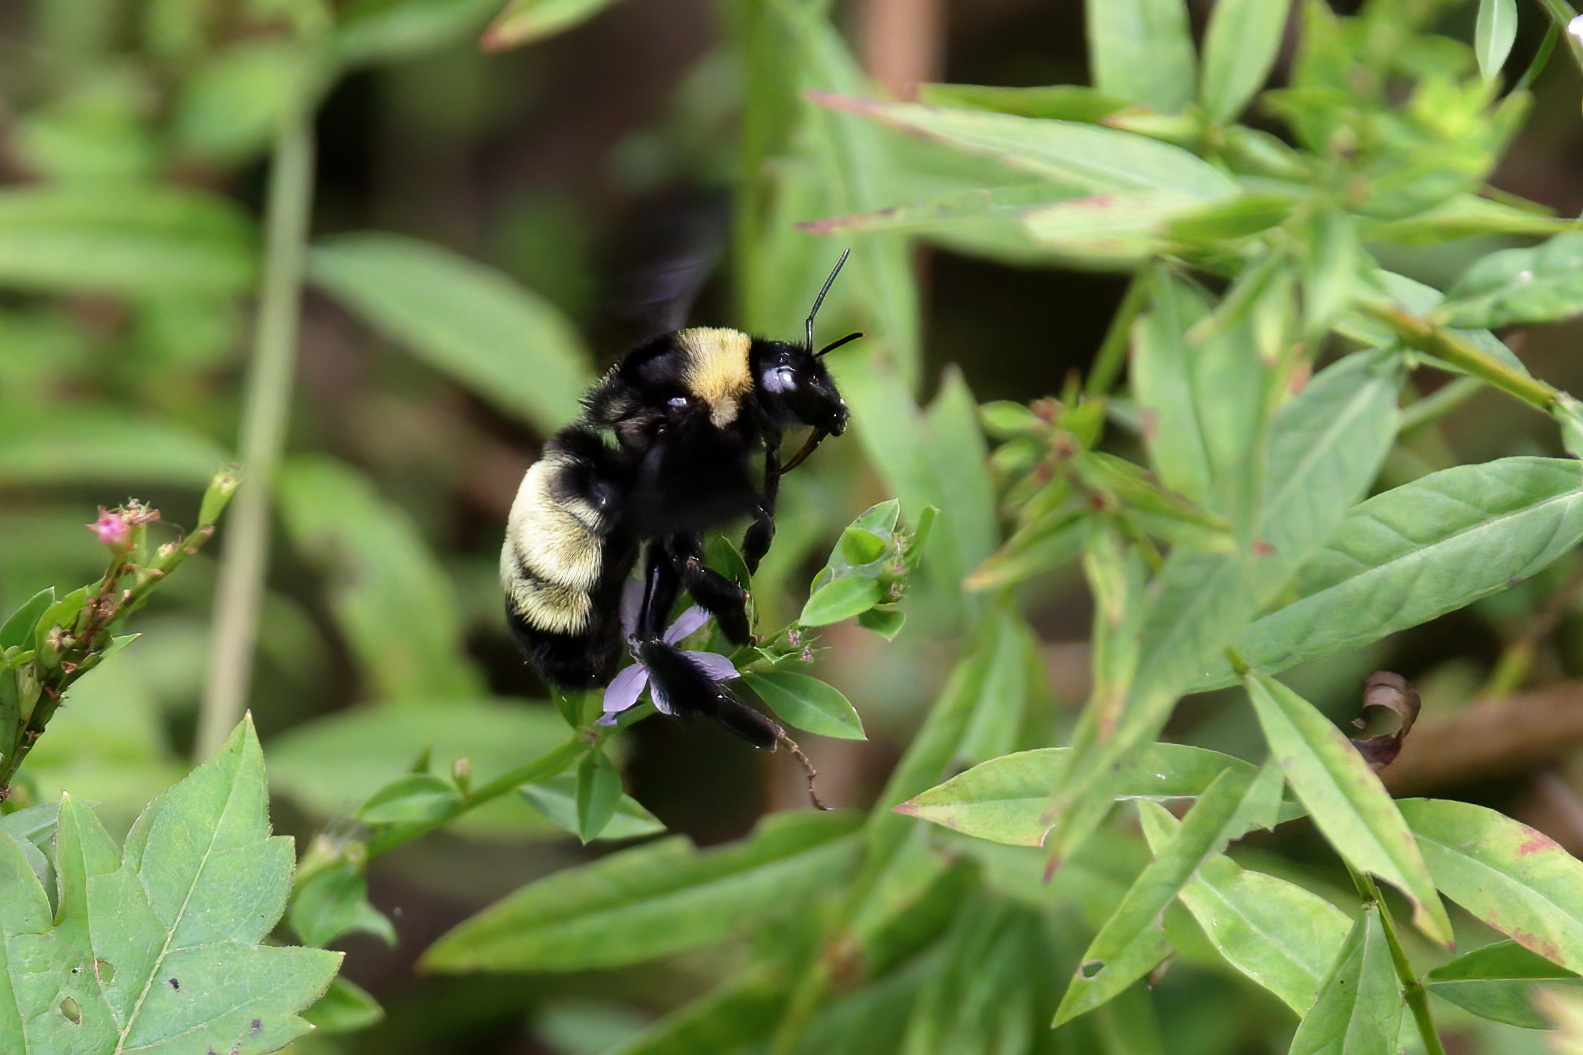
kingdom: Animalia
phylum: Arthropoda
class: Insecta
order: Hymenoptera
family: Apidae
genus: Bombus
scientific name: Bombus pensylvanicus
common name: Bumble bee
